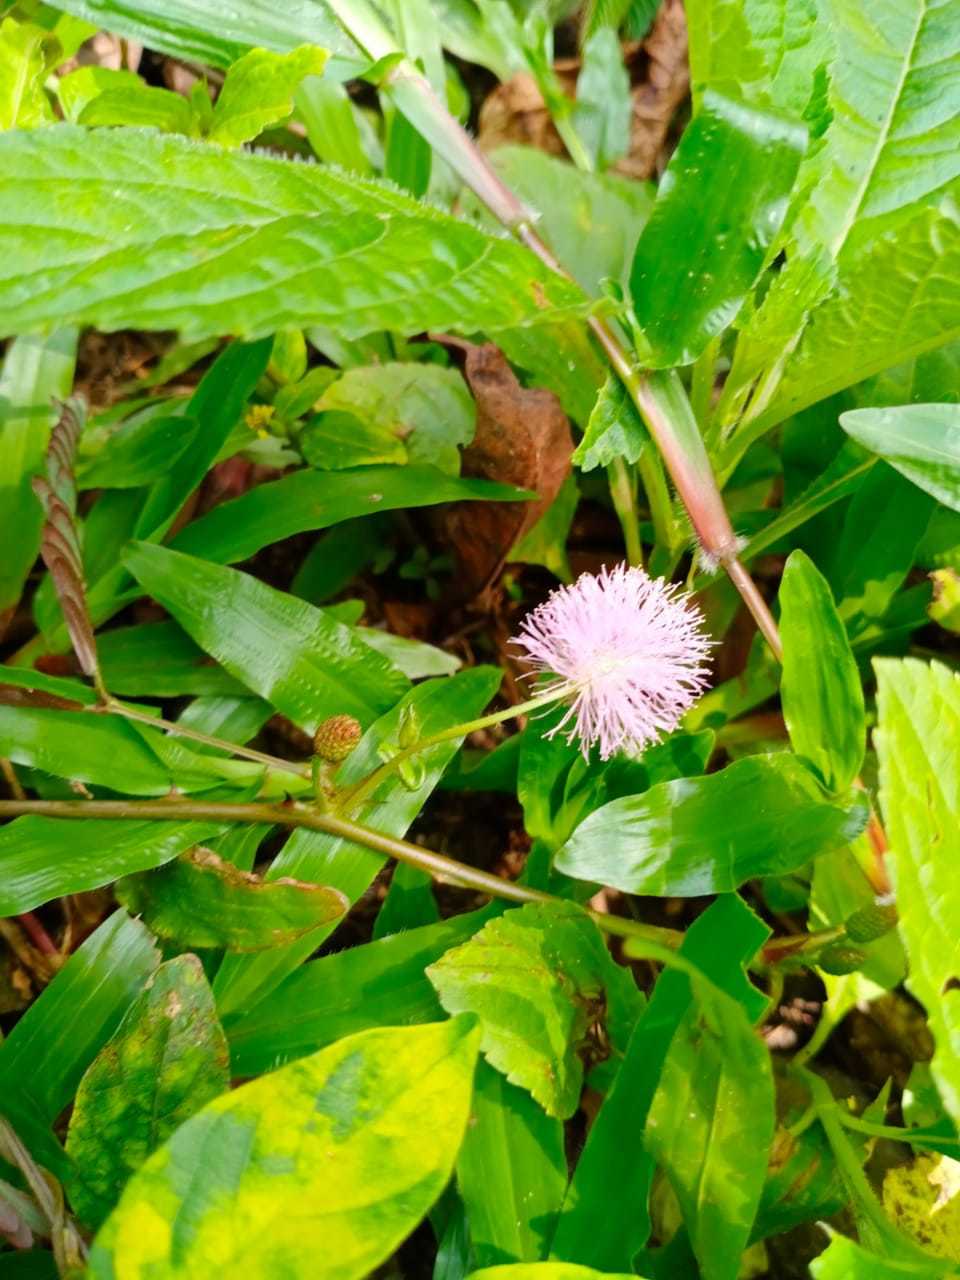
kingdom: Plantae
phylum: Tracheophyta
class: Magnoliopsida
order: Fabales
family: Fabaceae
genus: Mimosa
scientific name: Mimosa pudica
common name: Sensitive plant
